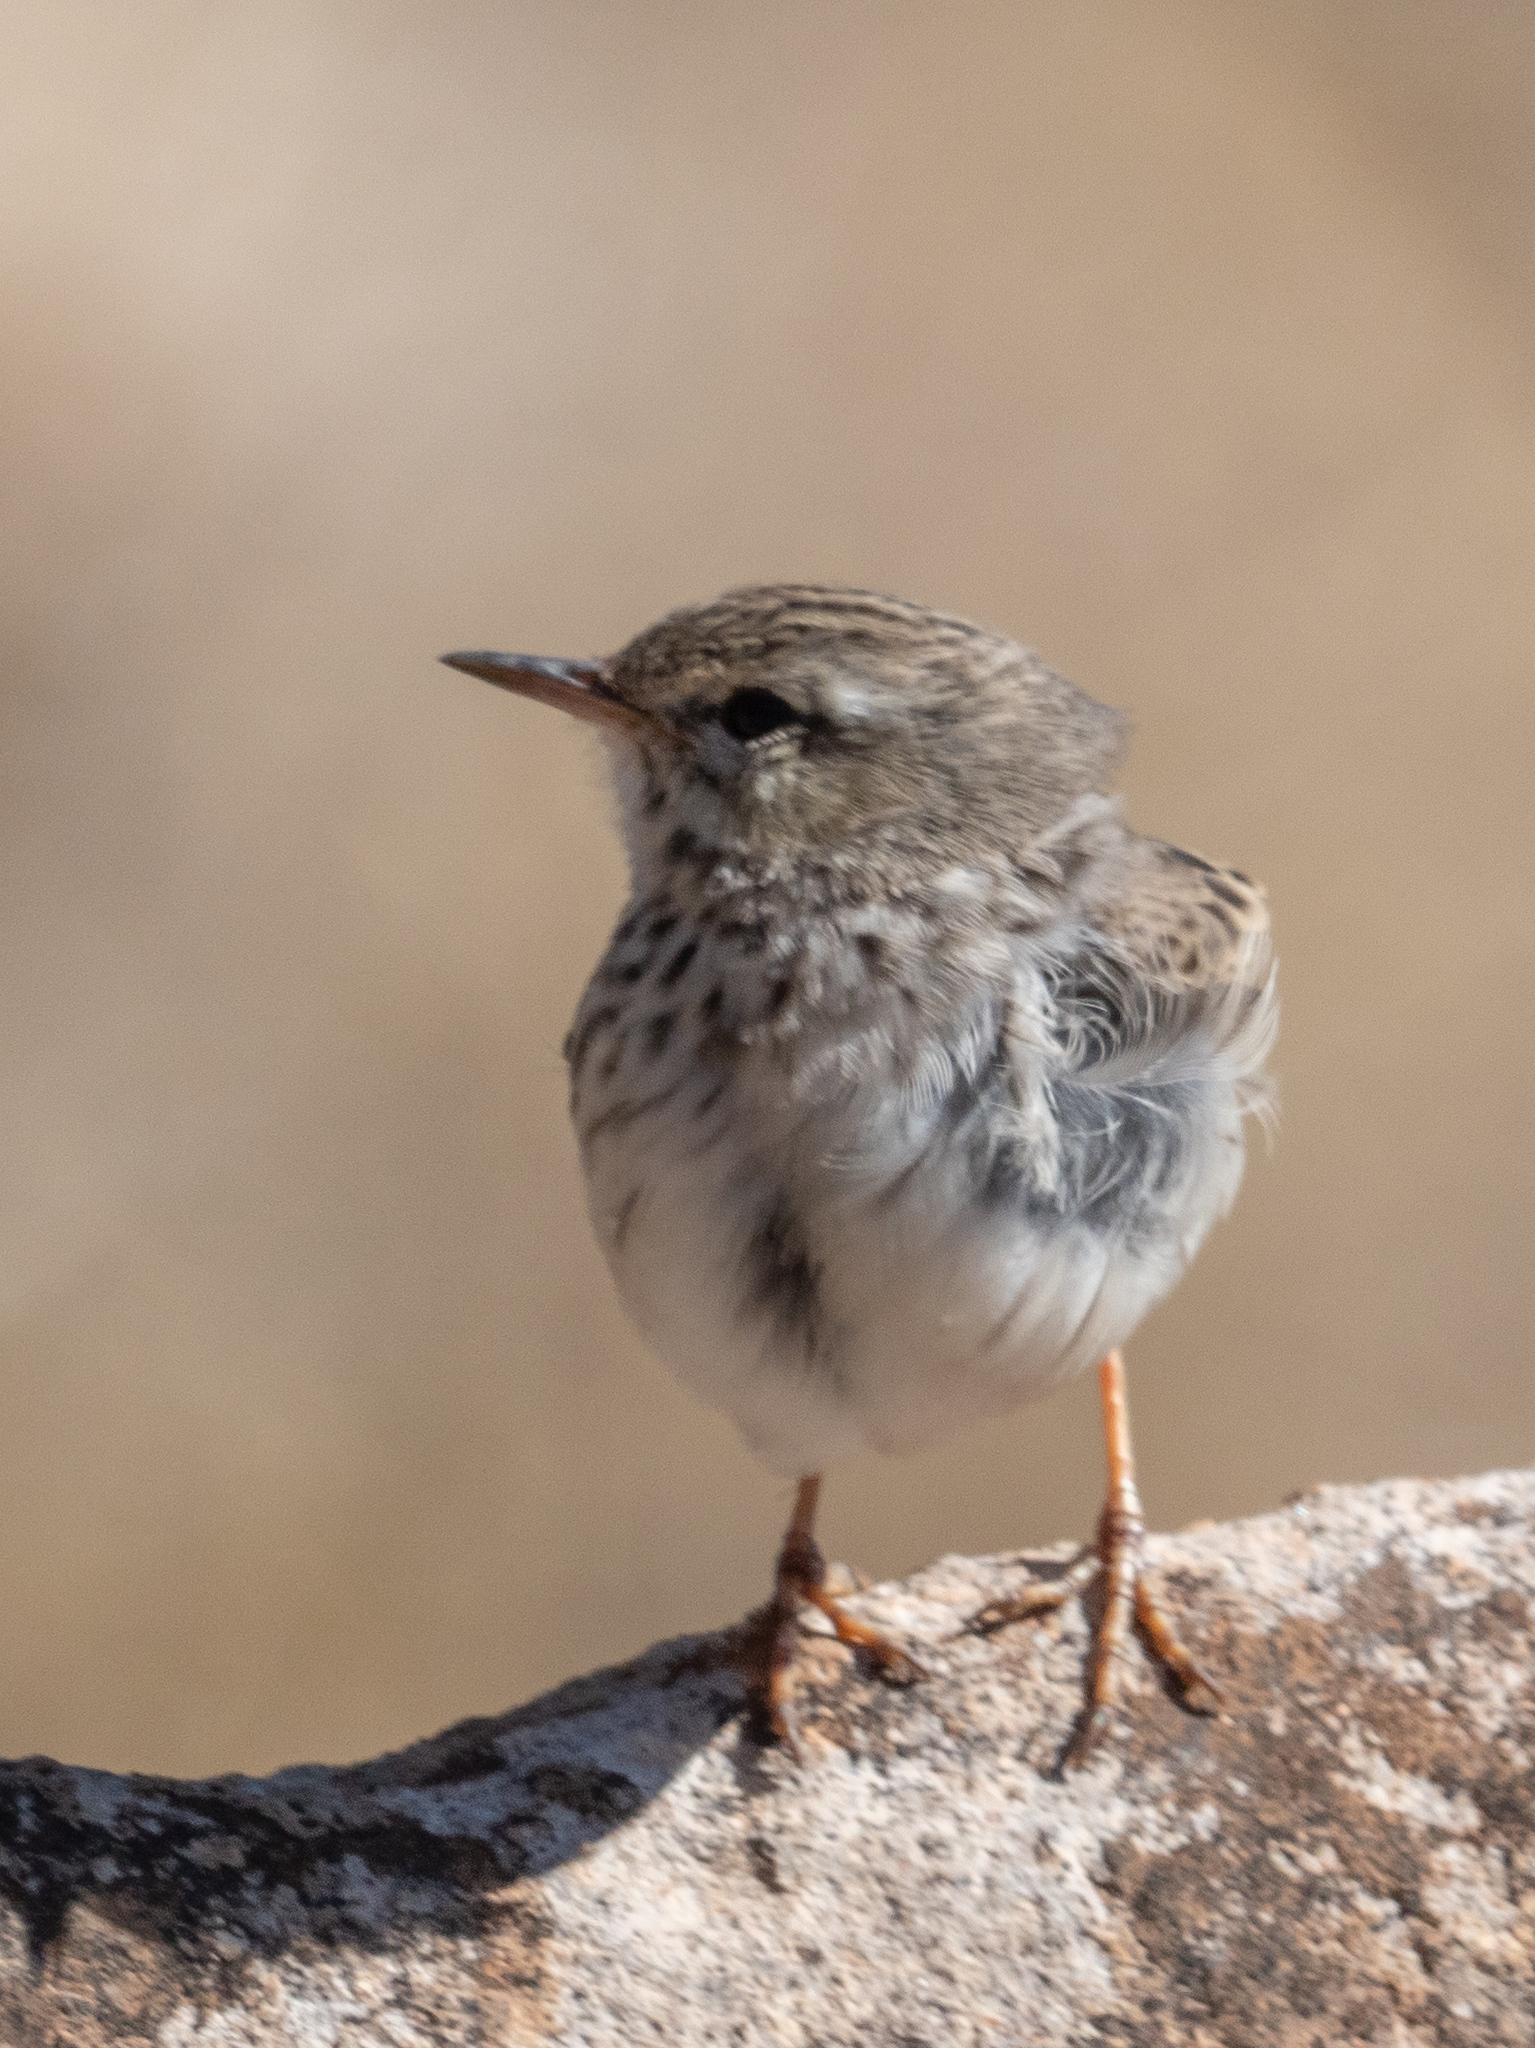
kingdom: Animalia
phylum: Chordata
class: Aves
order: Passeriformes
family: Motacillidae
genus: Anthus
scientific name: Anthus berthelotii
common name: Berthelot's pipit
